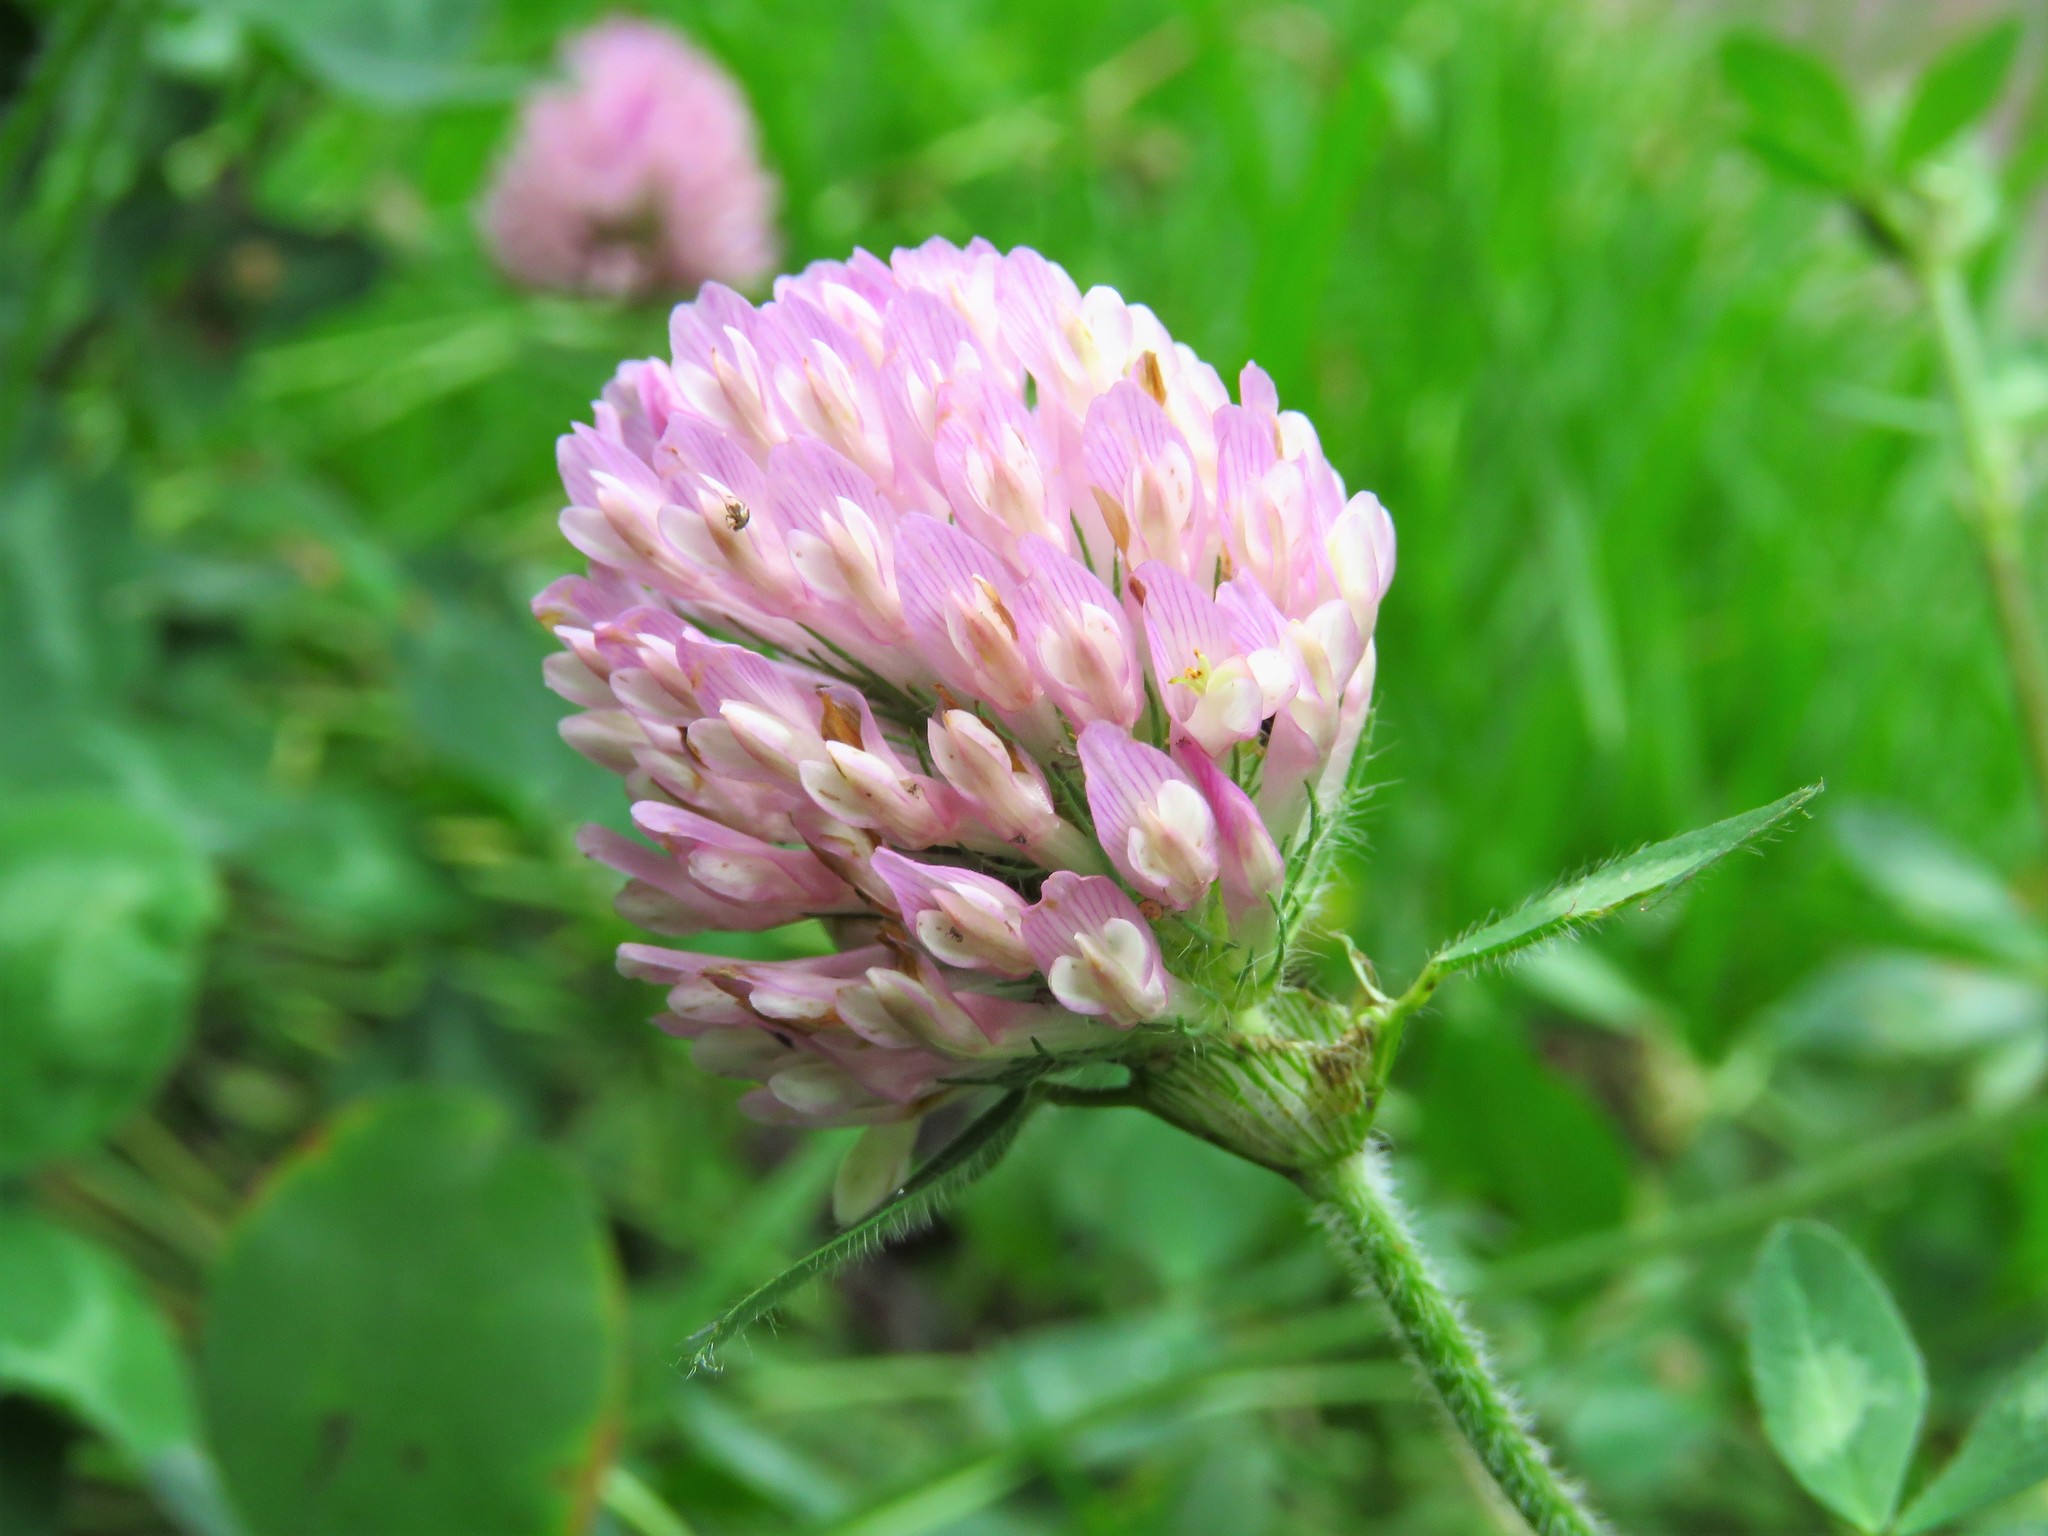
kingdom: Plantae
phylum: Tracheophyta
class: Magnoliopsida
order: Fabales
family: Fabaceae
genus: Trifolium
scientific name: Trifolium pratense
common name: Red clover
